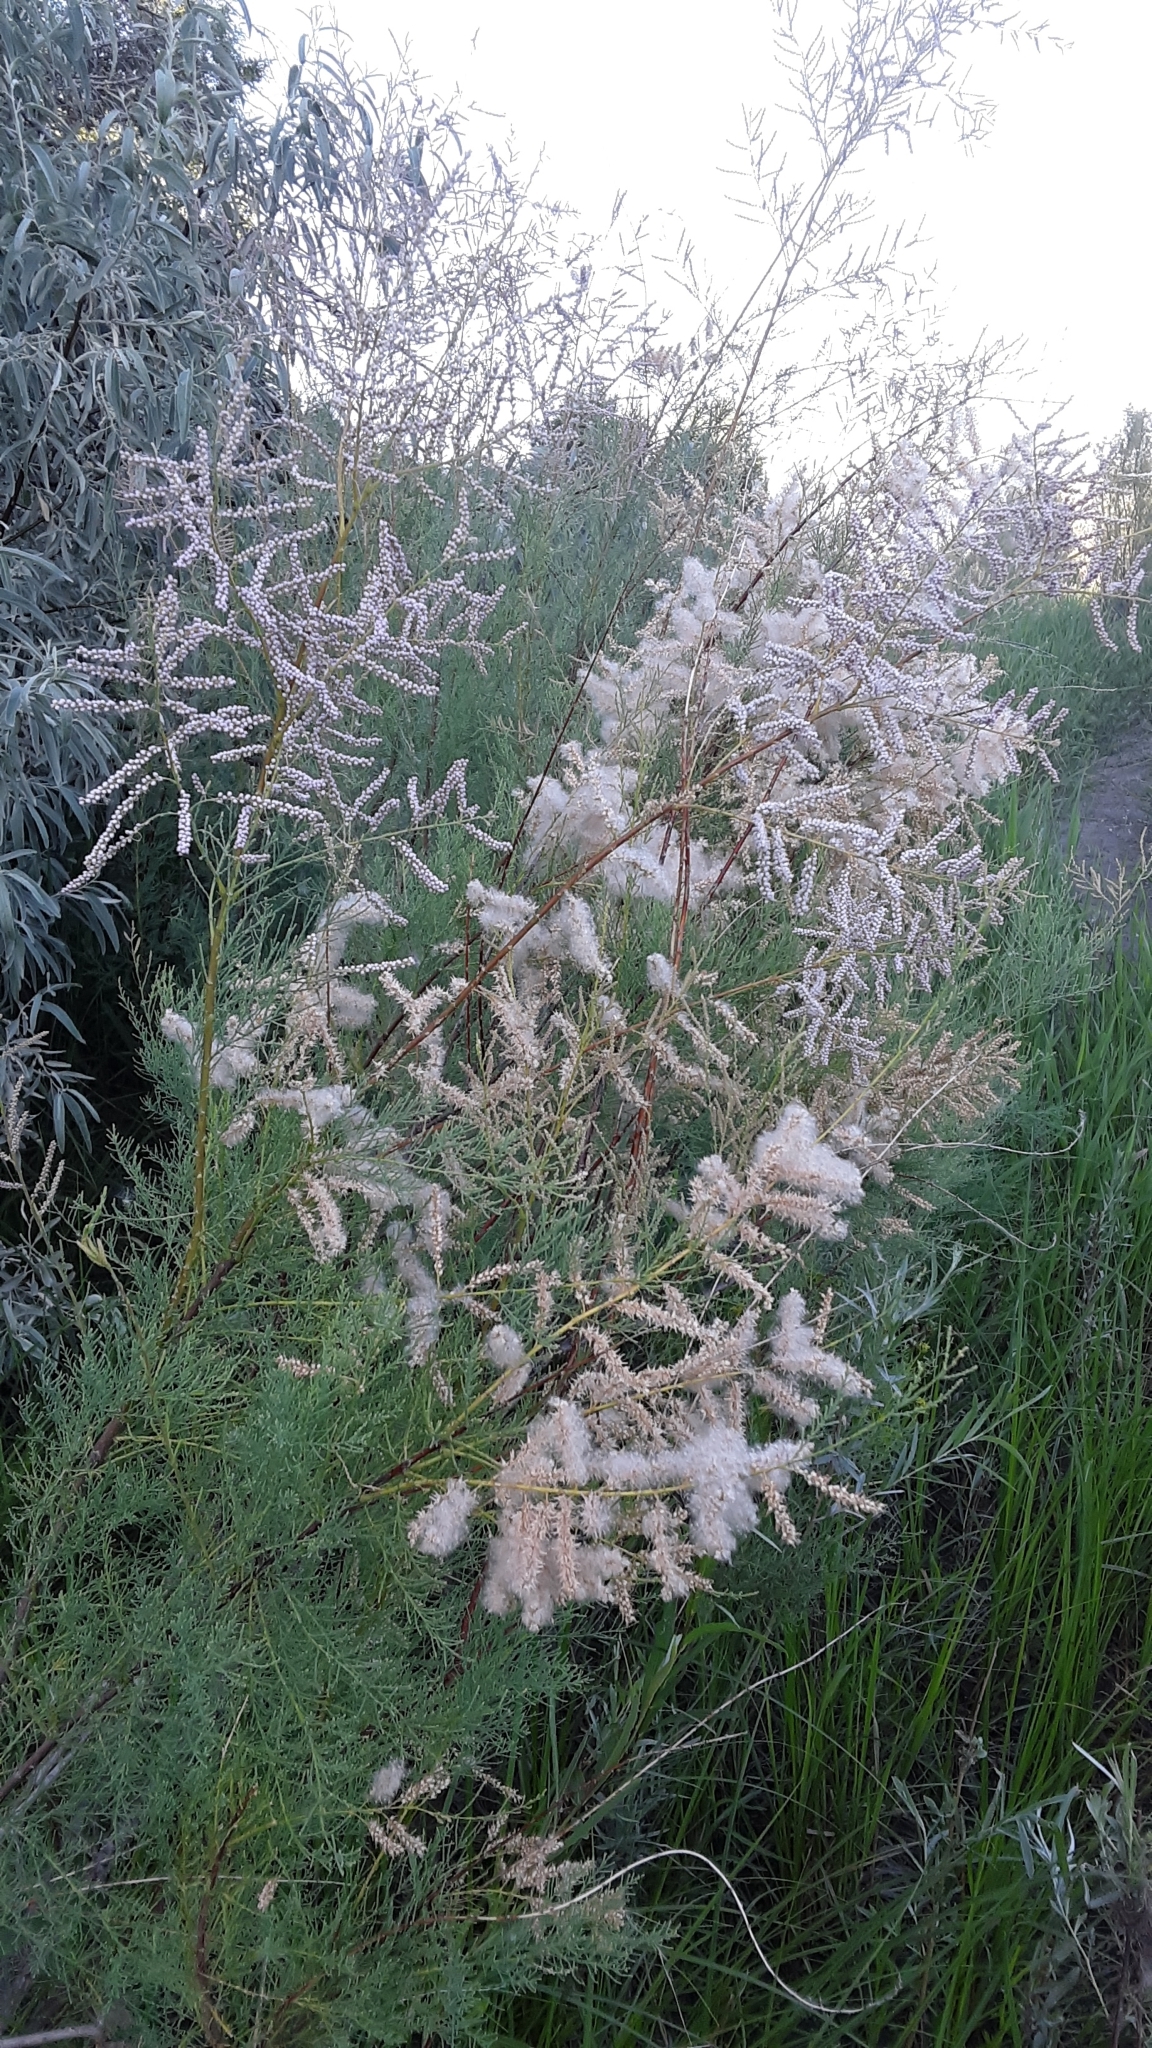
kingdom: Plantae
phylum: Tracheophyta
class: Magnoliopsida
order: Caryophyllales
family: Tamaricaceae
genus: Tamarix
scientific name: Tamarix ramosissima
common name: Pink tamarisk
